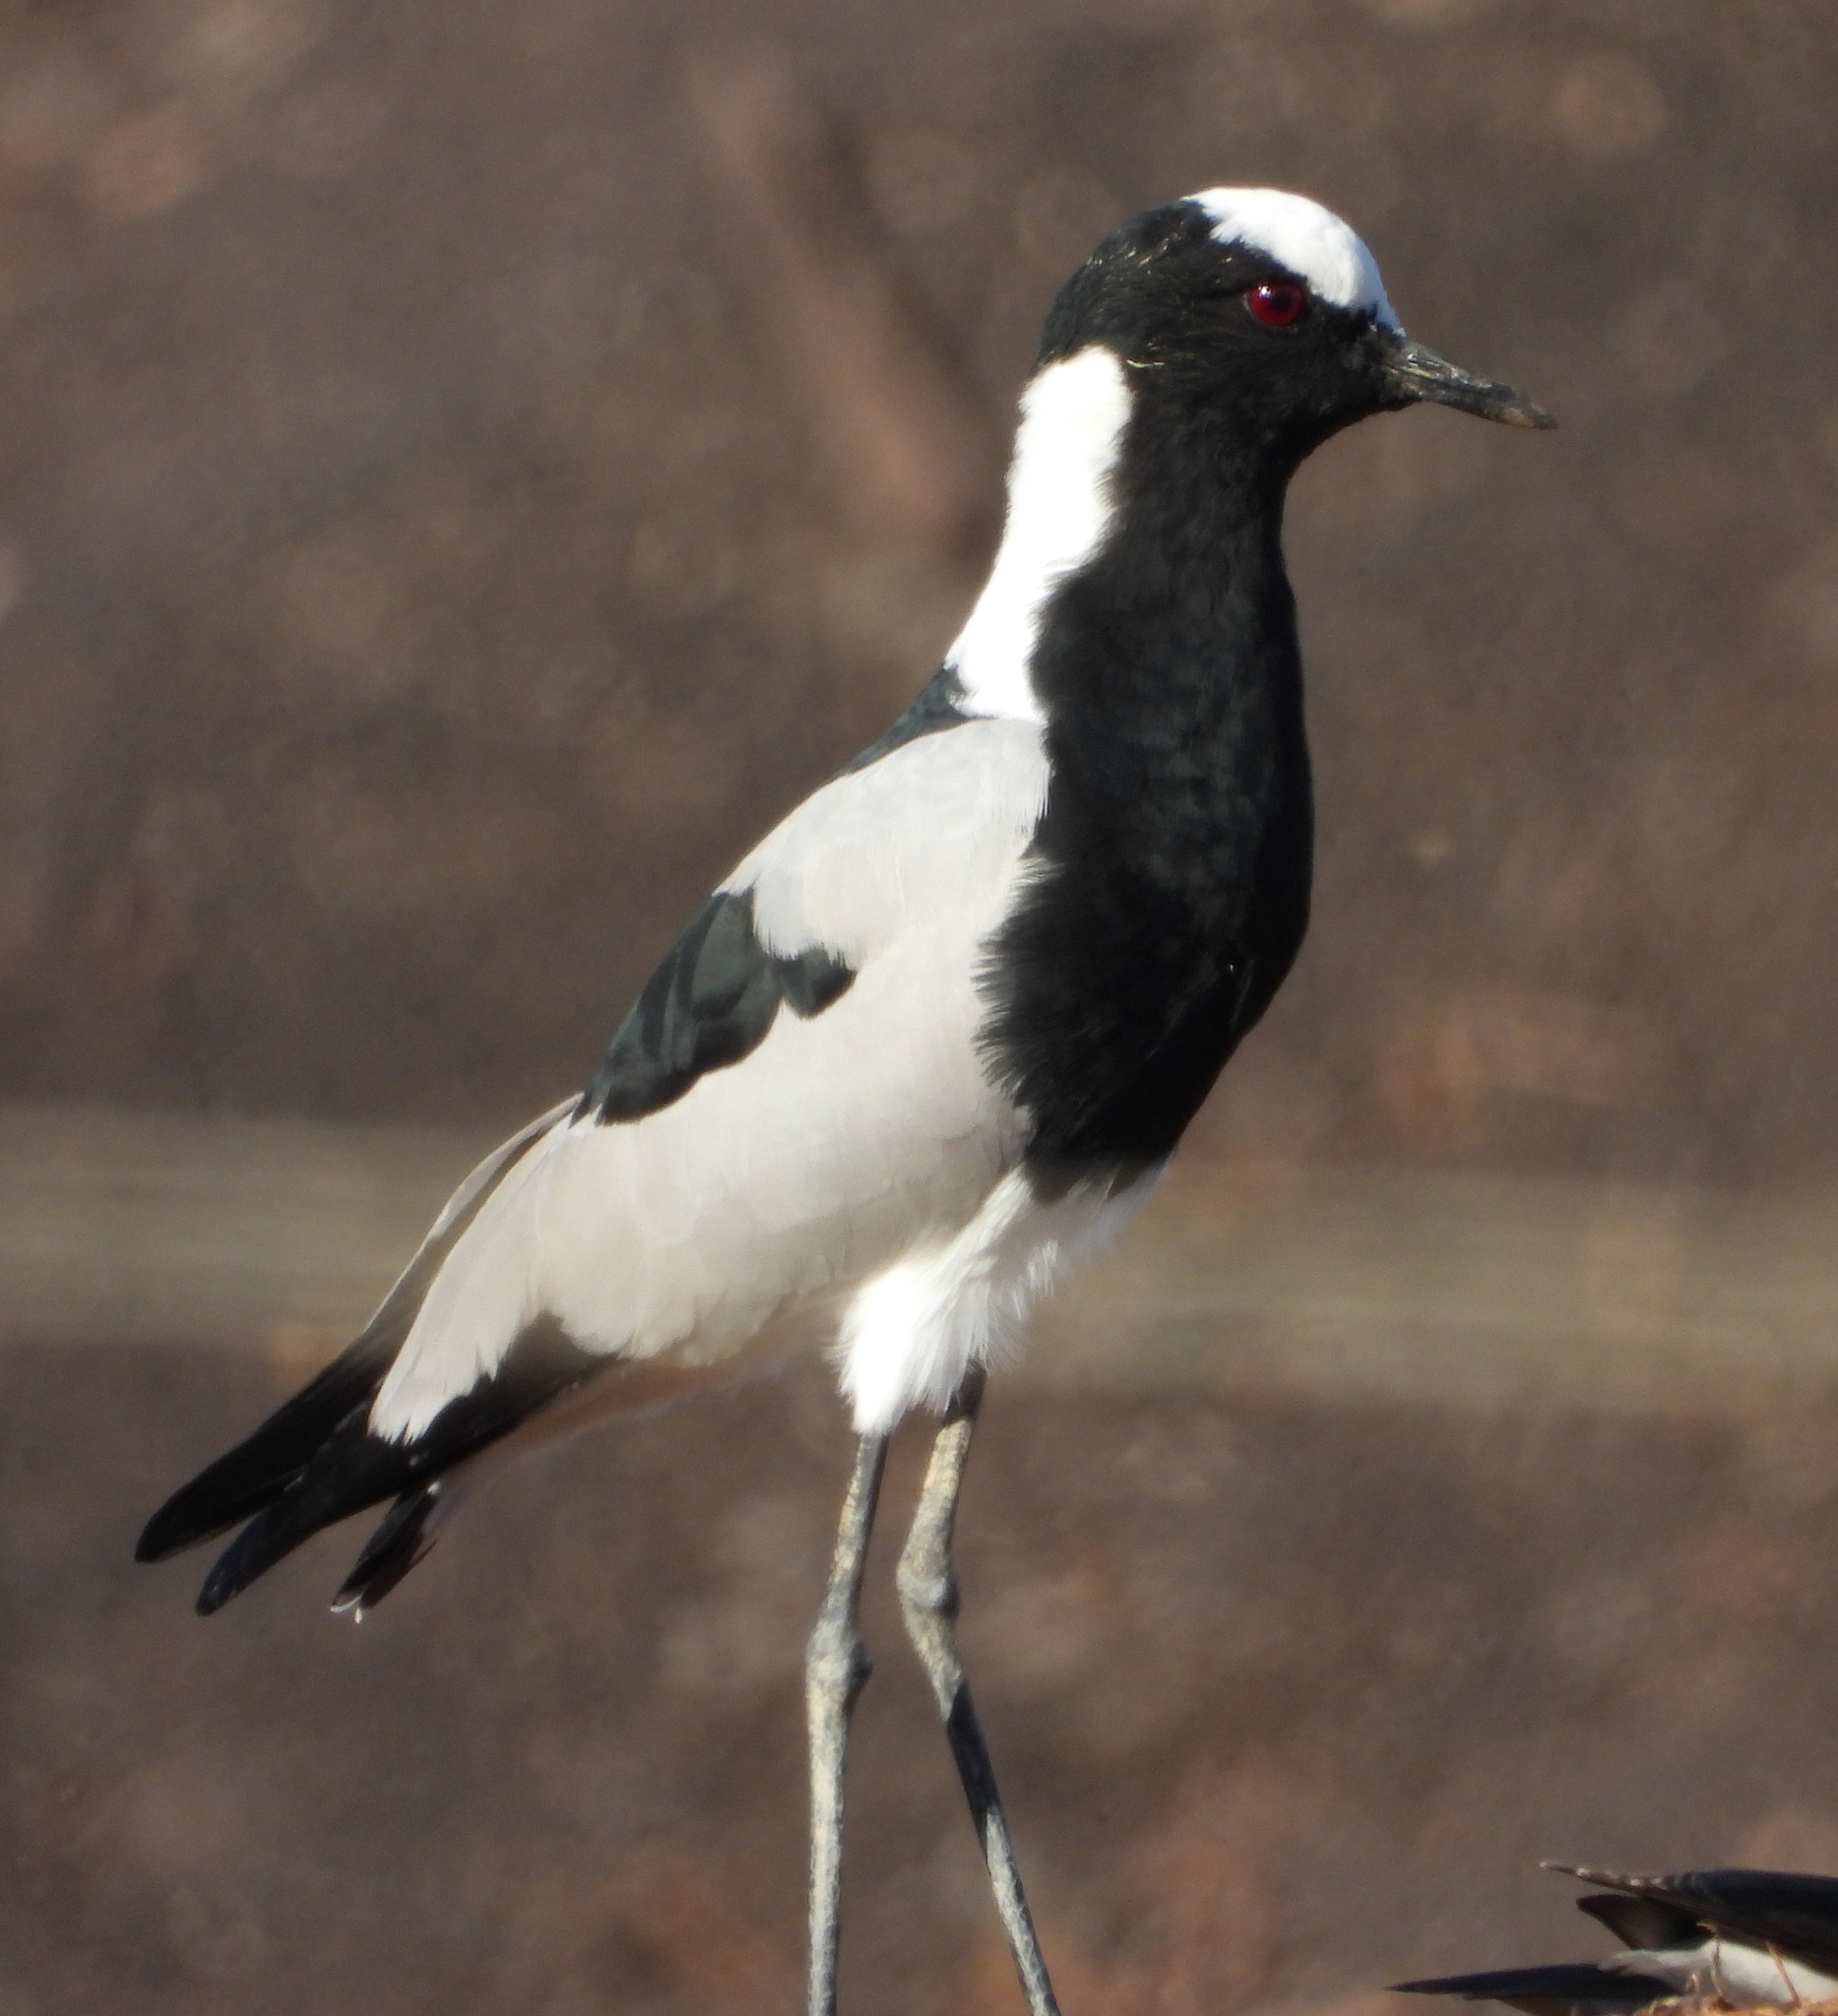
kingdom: Animalia
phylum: Chordata
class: Aves
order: Charadriiformes
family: Charadriidae
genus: Vanellus
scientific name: Vanellus armatus
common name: Blacksmith lapwing
